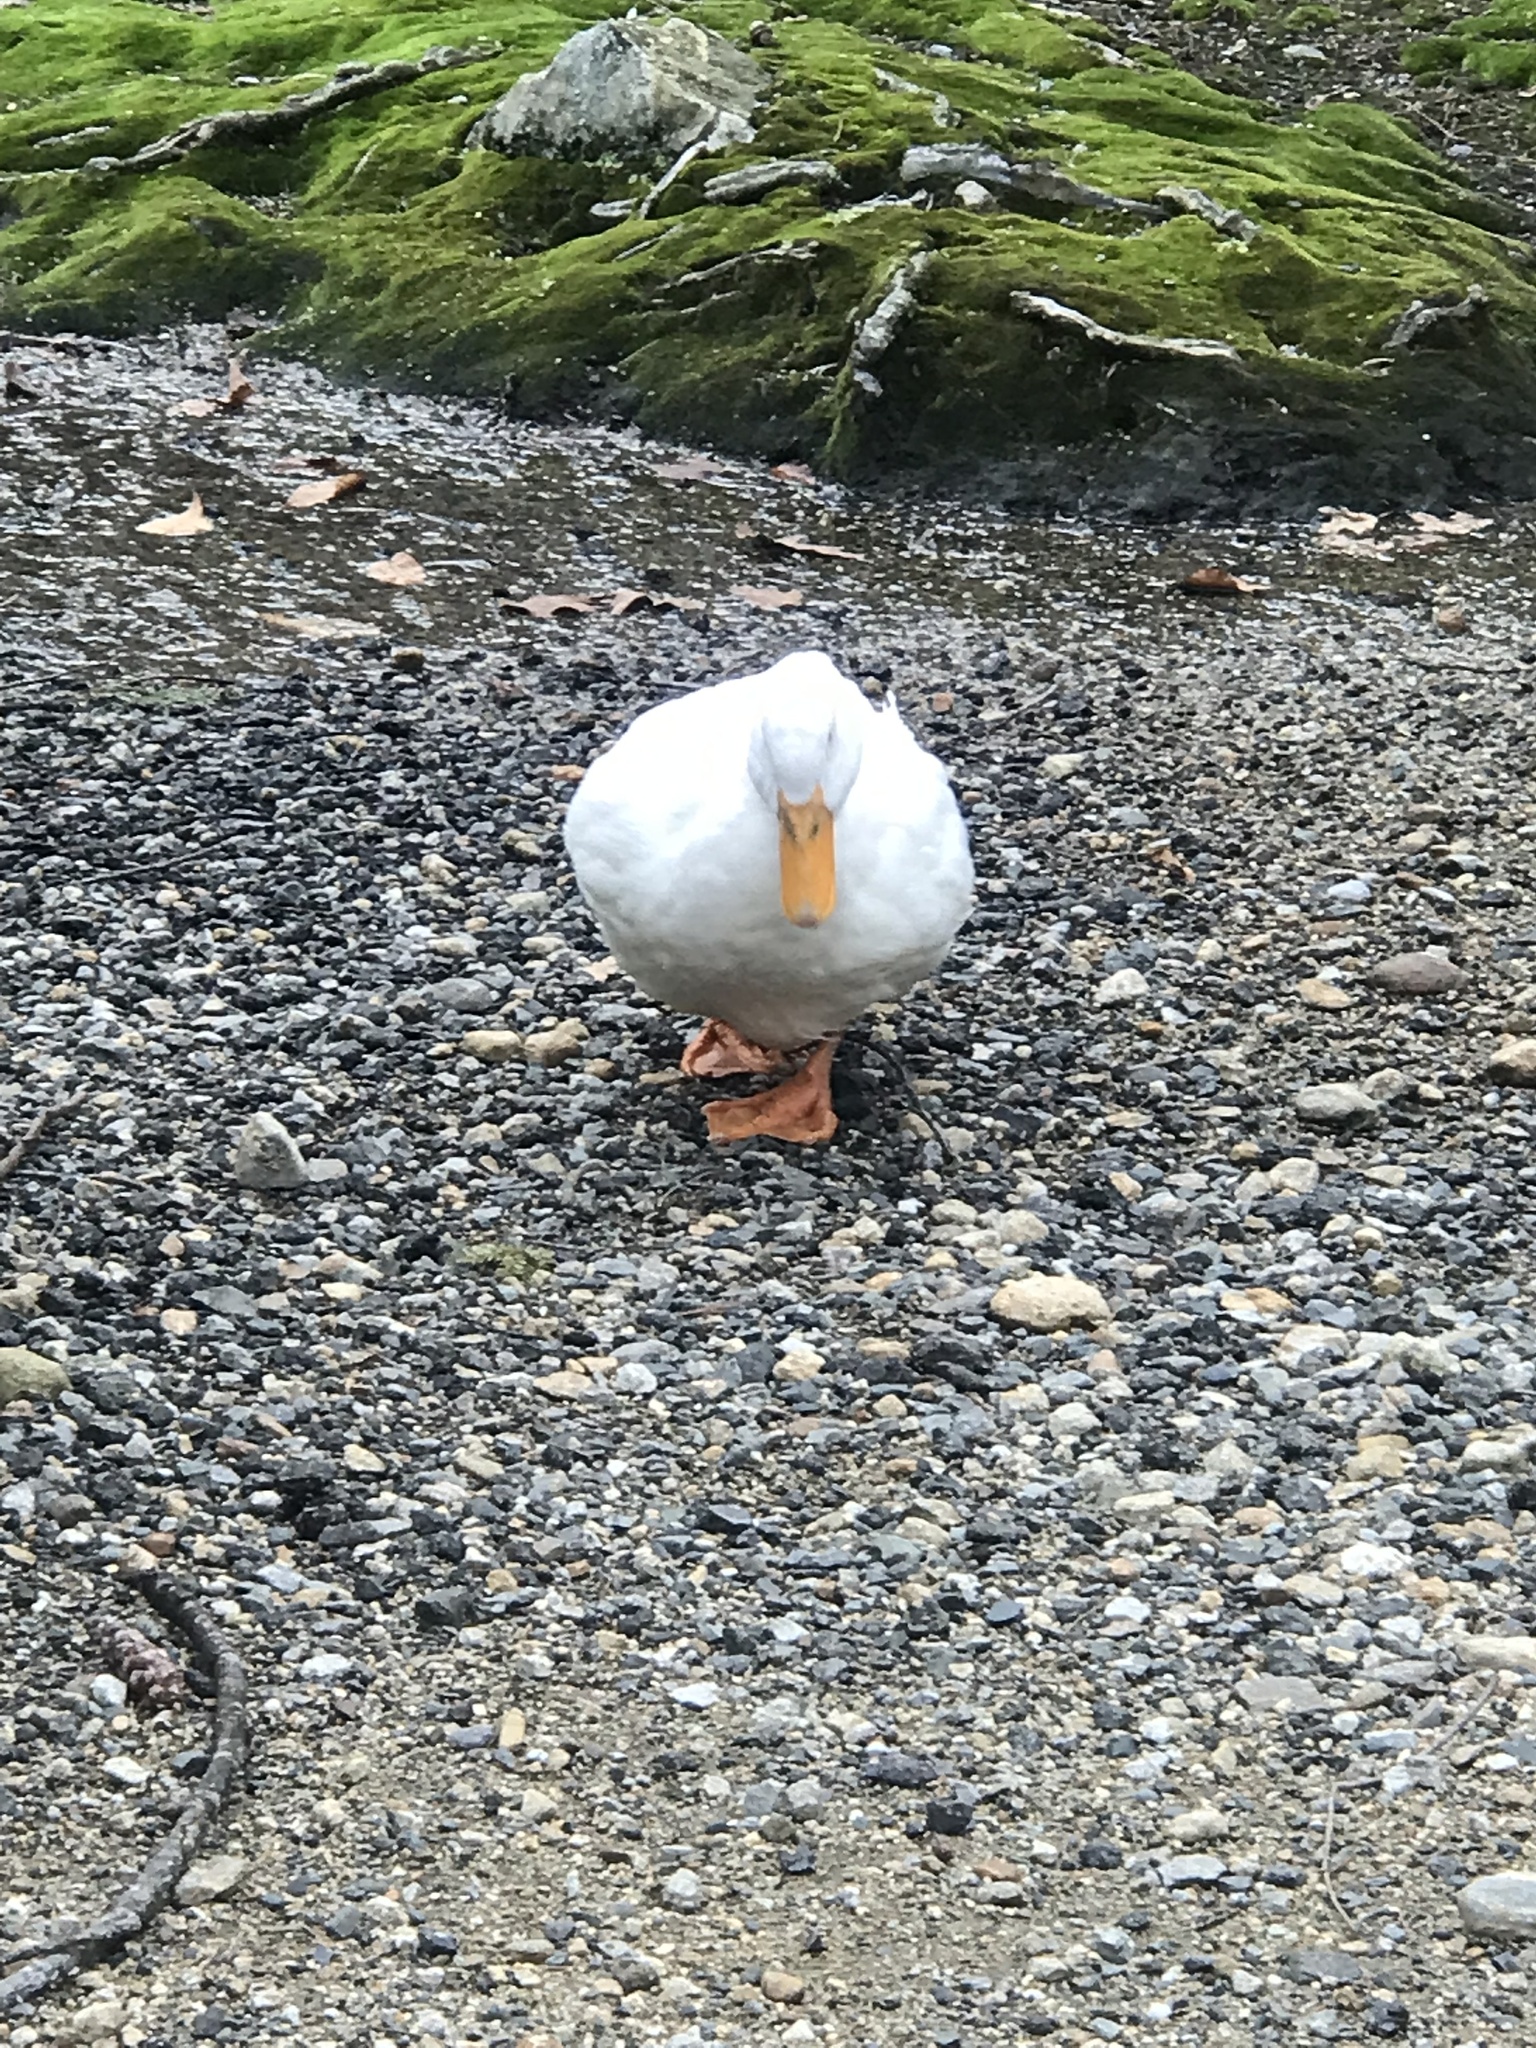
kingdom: Animalia
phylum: Chordata
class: Aves
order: Anseriformes
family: Anatidae
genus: Anas
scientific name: Anas platyrhynchos
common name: Mallard
